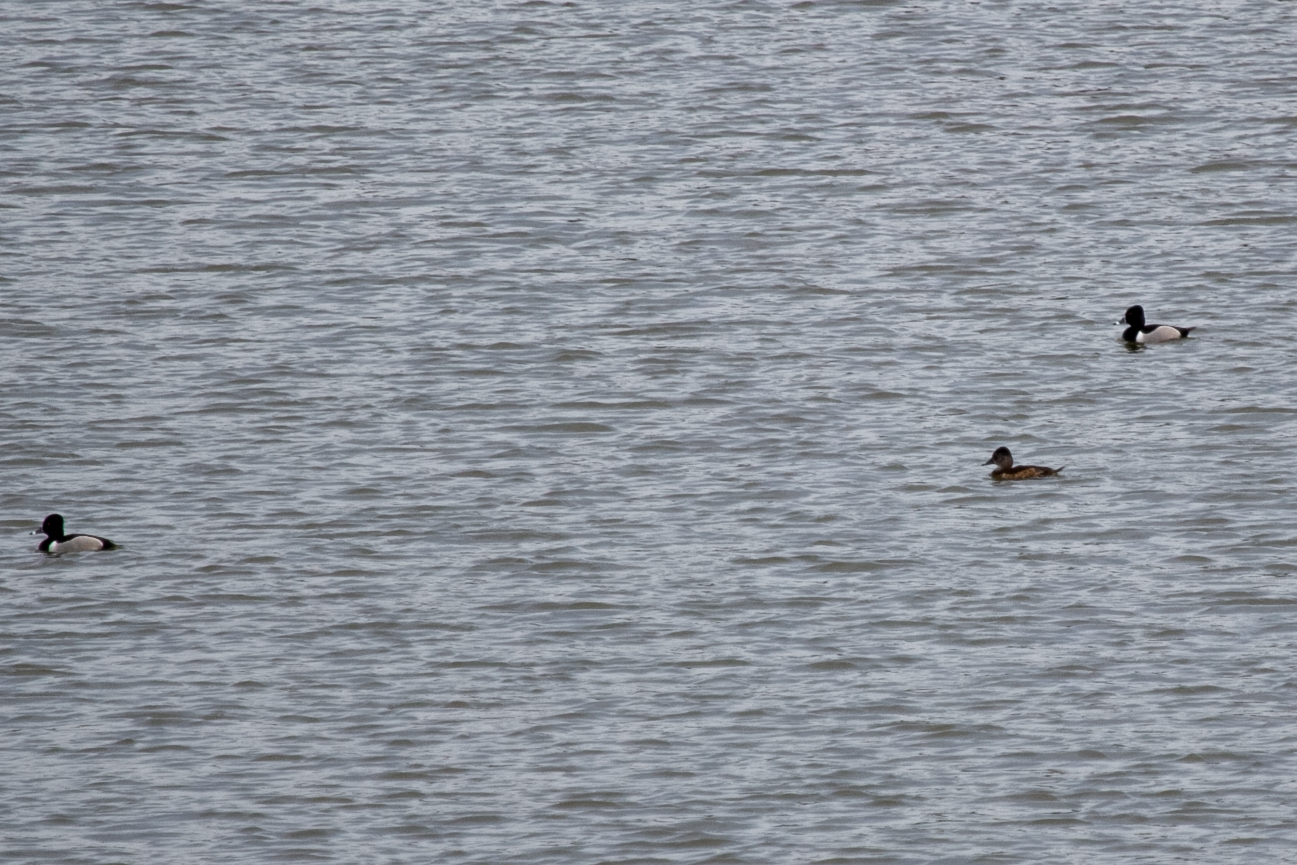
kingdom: Animalia
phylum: Chordata
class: Aves
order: Anseriformes
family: Anatidae
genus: Aythya
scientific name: Aythya collaris
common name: Ring-necked duck
